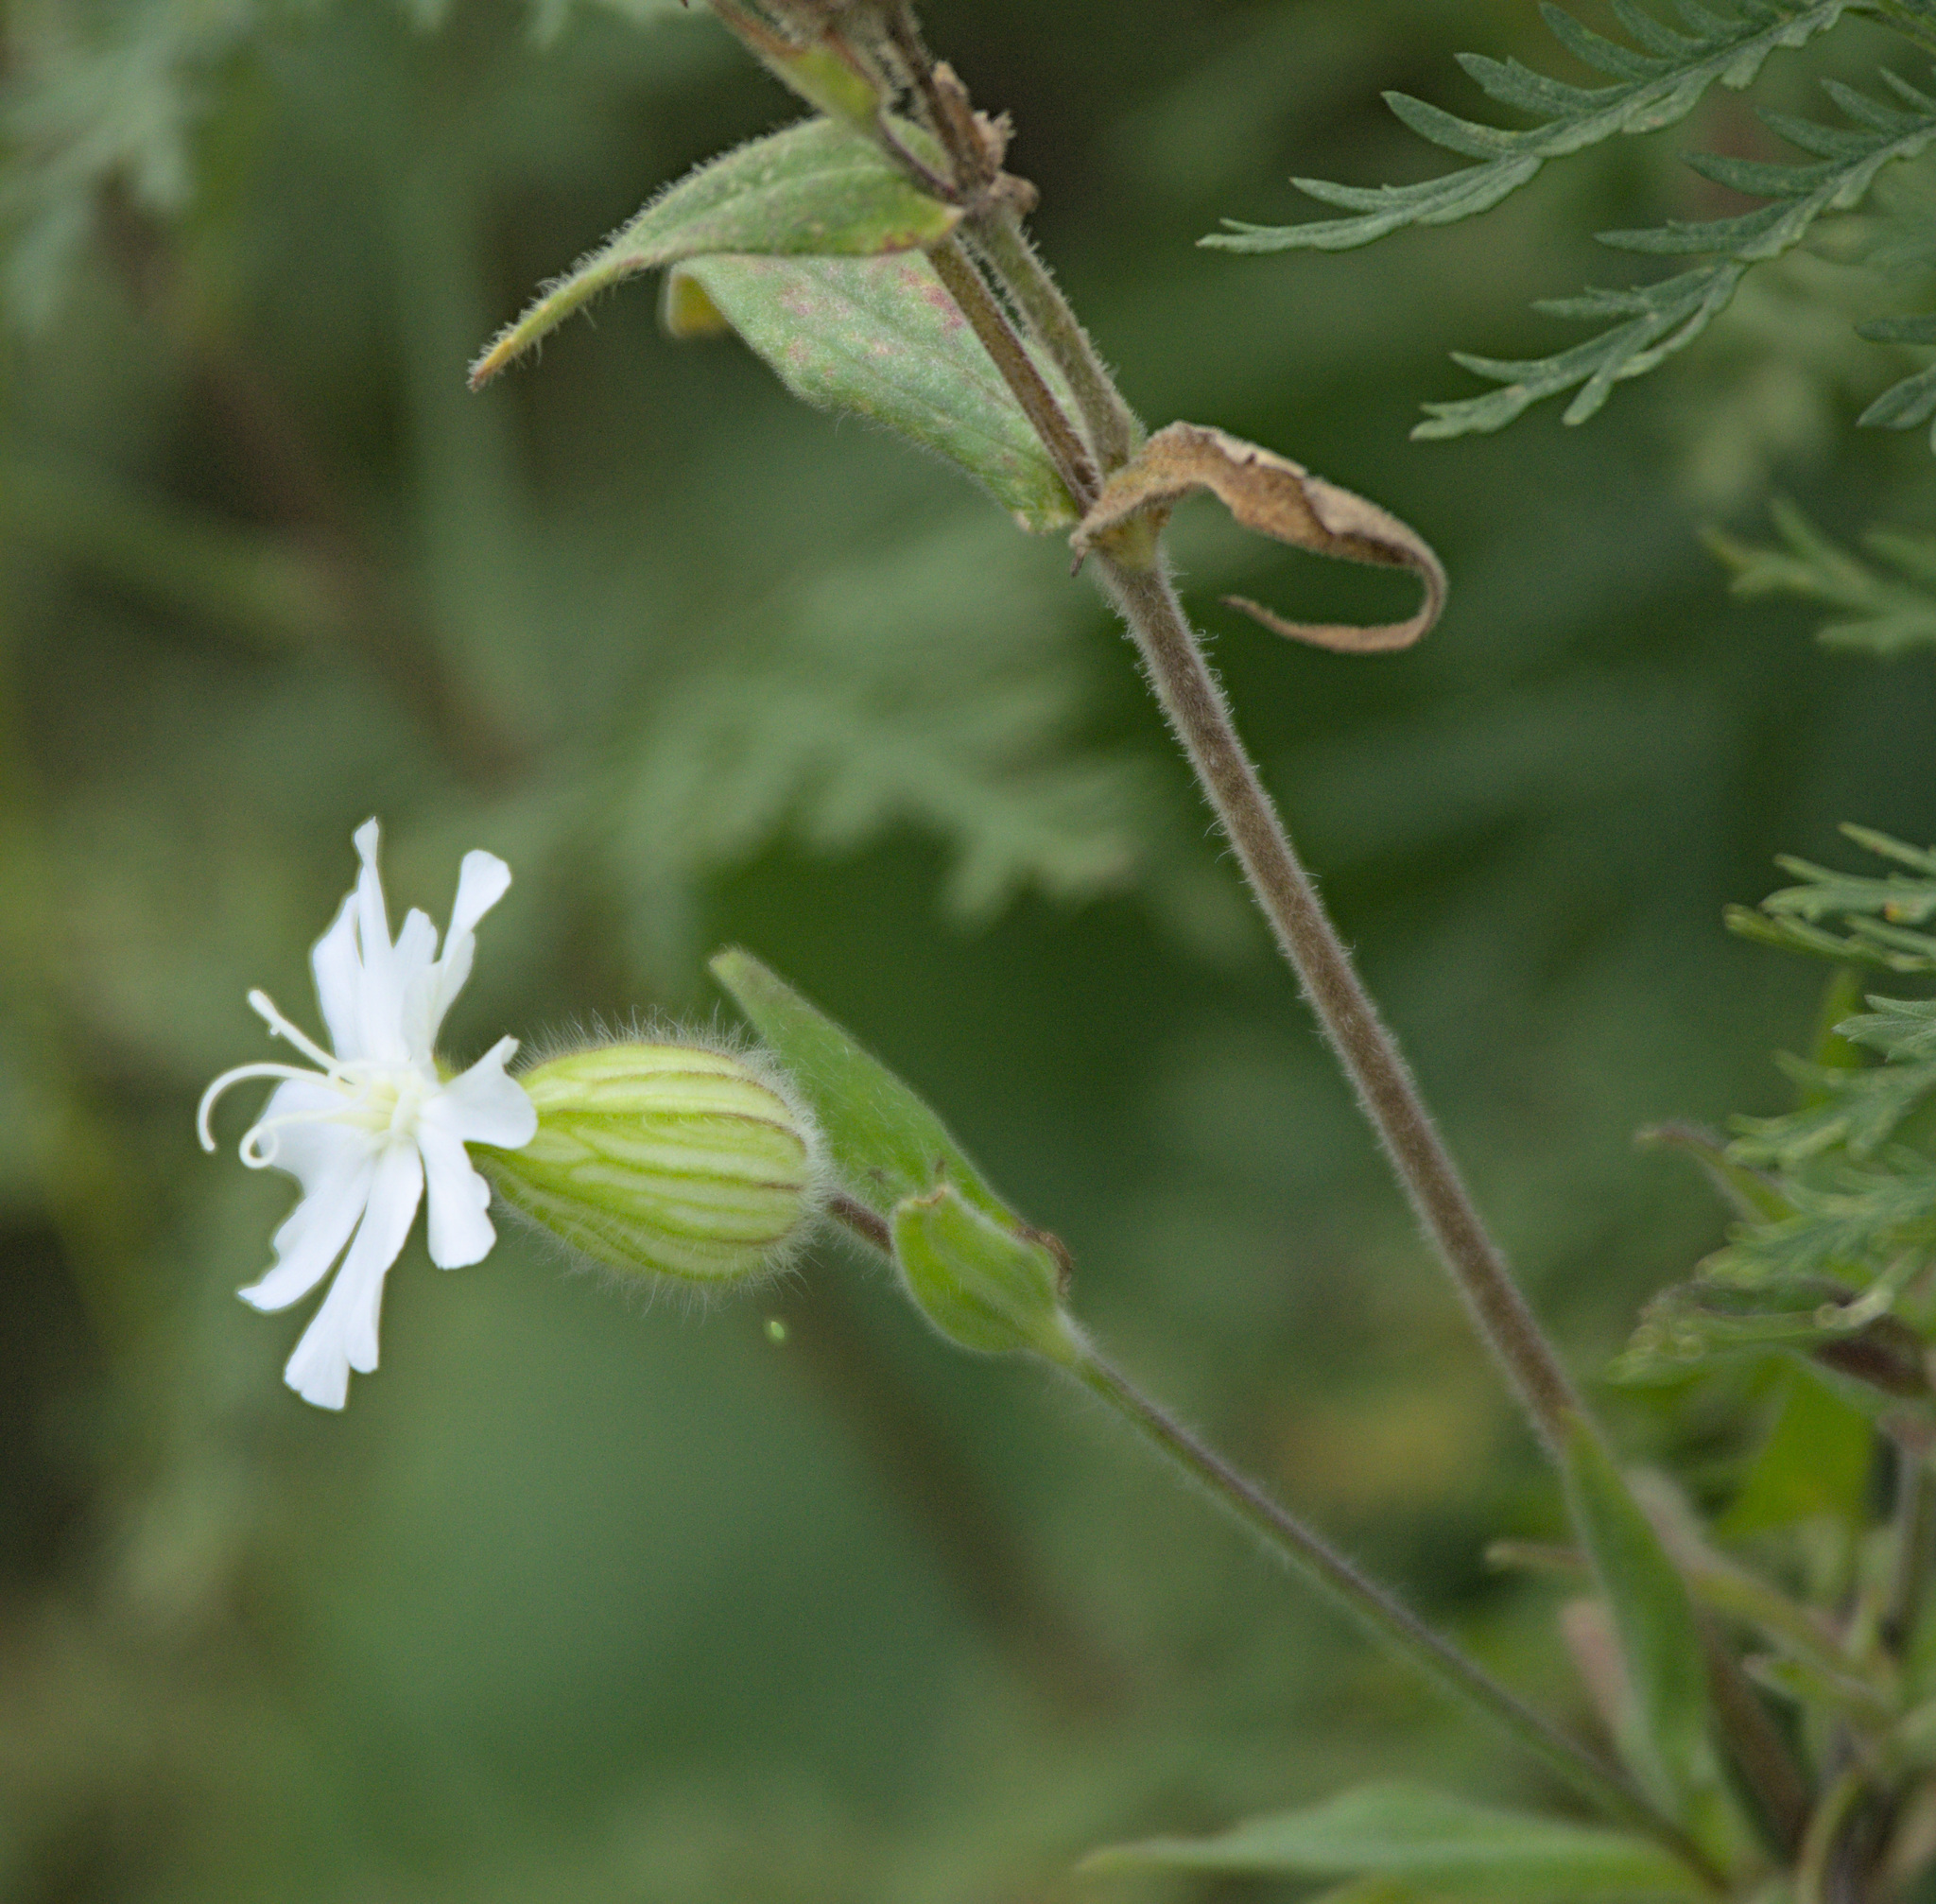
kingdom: Plantae
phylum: Tracheophyta
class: Magnoliopsida
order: Caryophyllales
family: Caryophyllaceae
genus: Silene
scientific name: Silene latifolia
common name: White campion
